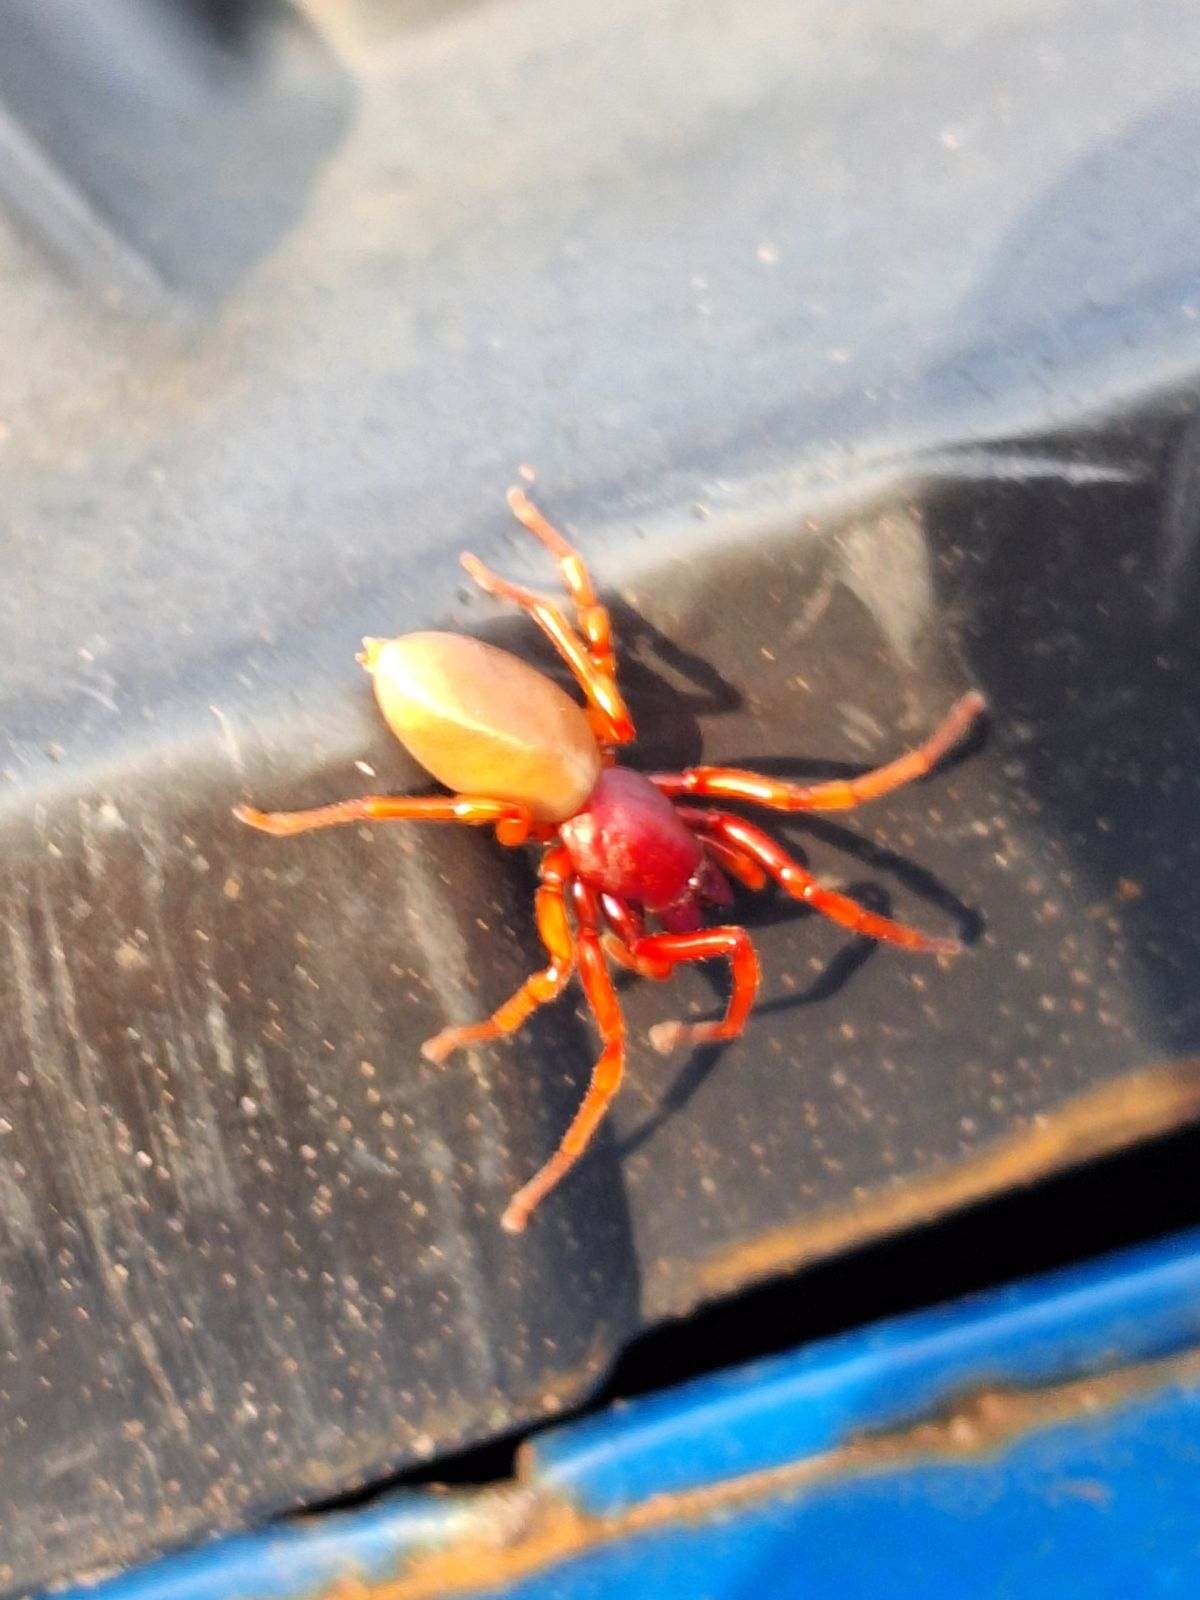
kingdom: Animalia
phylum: Arthropoda
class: Arachnida
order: Araneae
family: Dysderidae
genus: Dysdera
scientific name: Dysdera crocata
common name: Woodlouse spider
